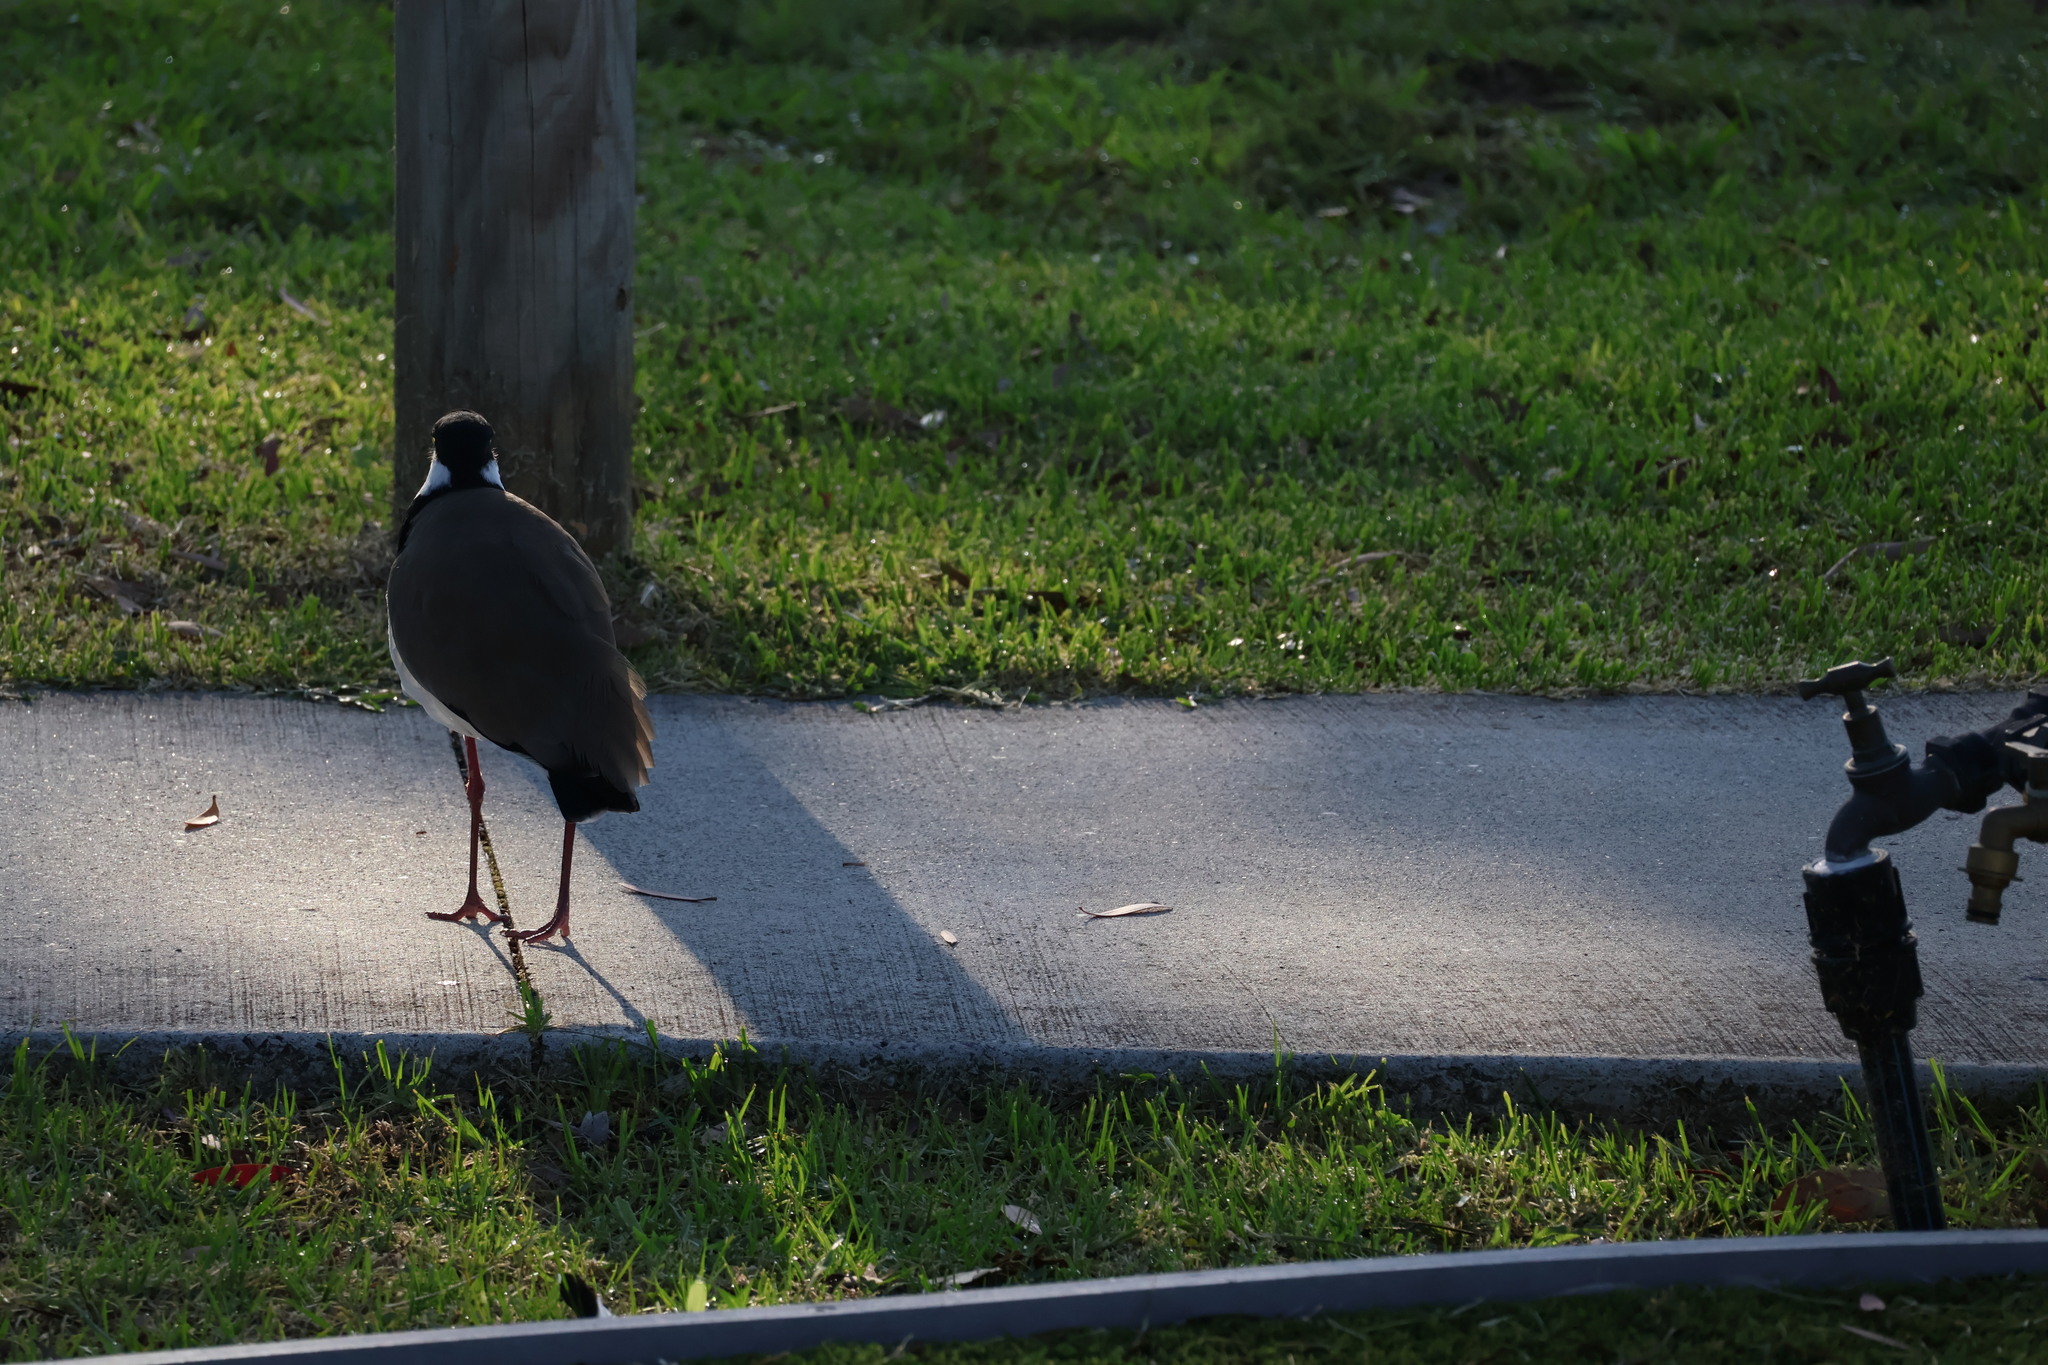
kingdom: Animalia
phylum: Chordata
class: Aves
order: Charadriiformes
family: Charadriidae
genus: Vanellus
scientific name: Vanellus miles
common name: Masked lapwing
